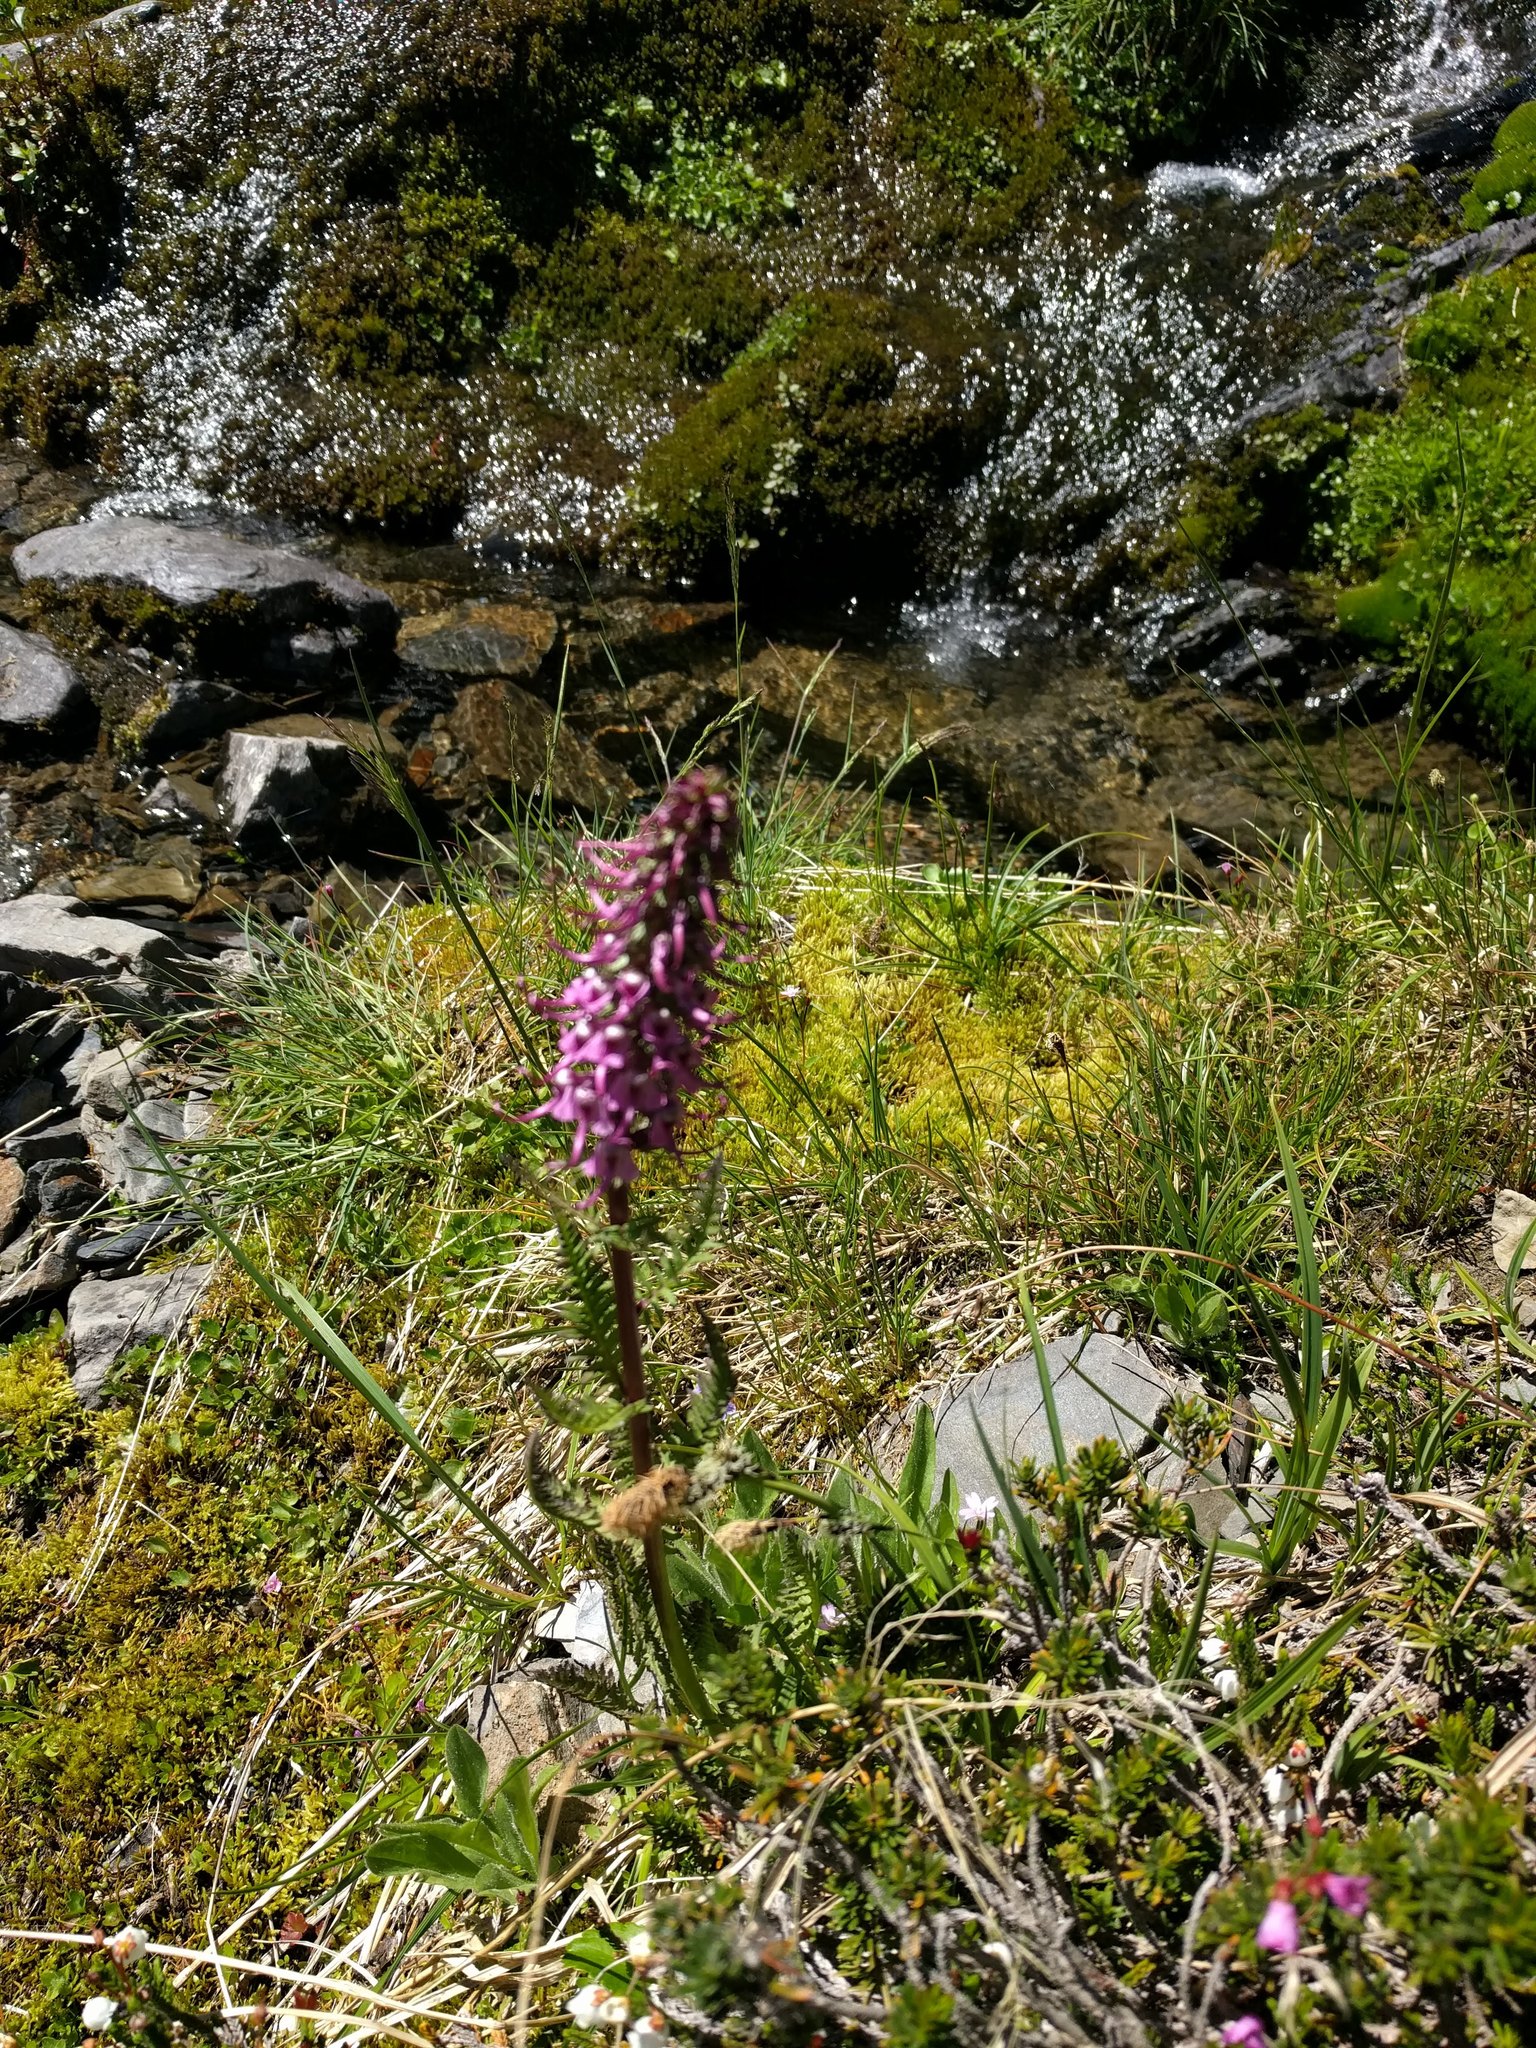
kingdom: Plantae
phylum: Tracheophyta
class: Magnoliopsida
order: Lamiales
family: Orobanchaceae
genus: Pedicularis
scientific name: Pedicularis groenlandica
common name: Elephant's-head
